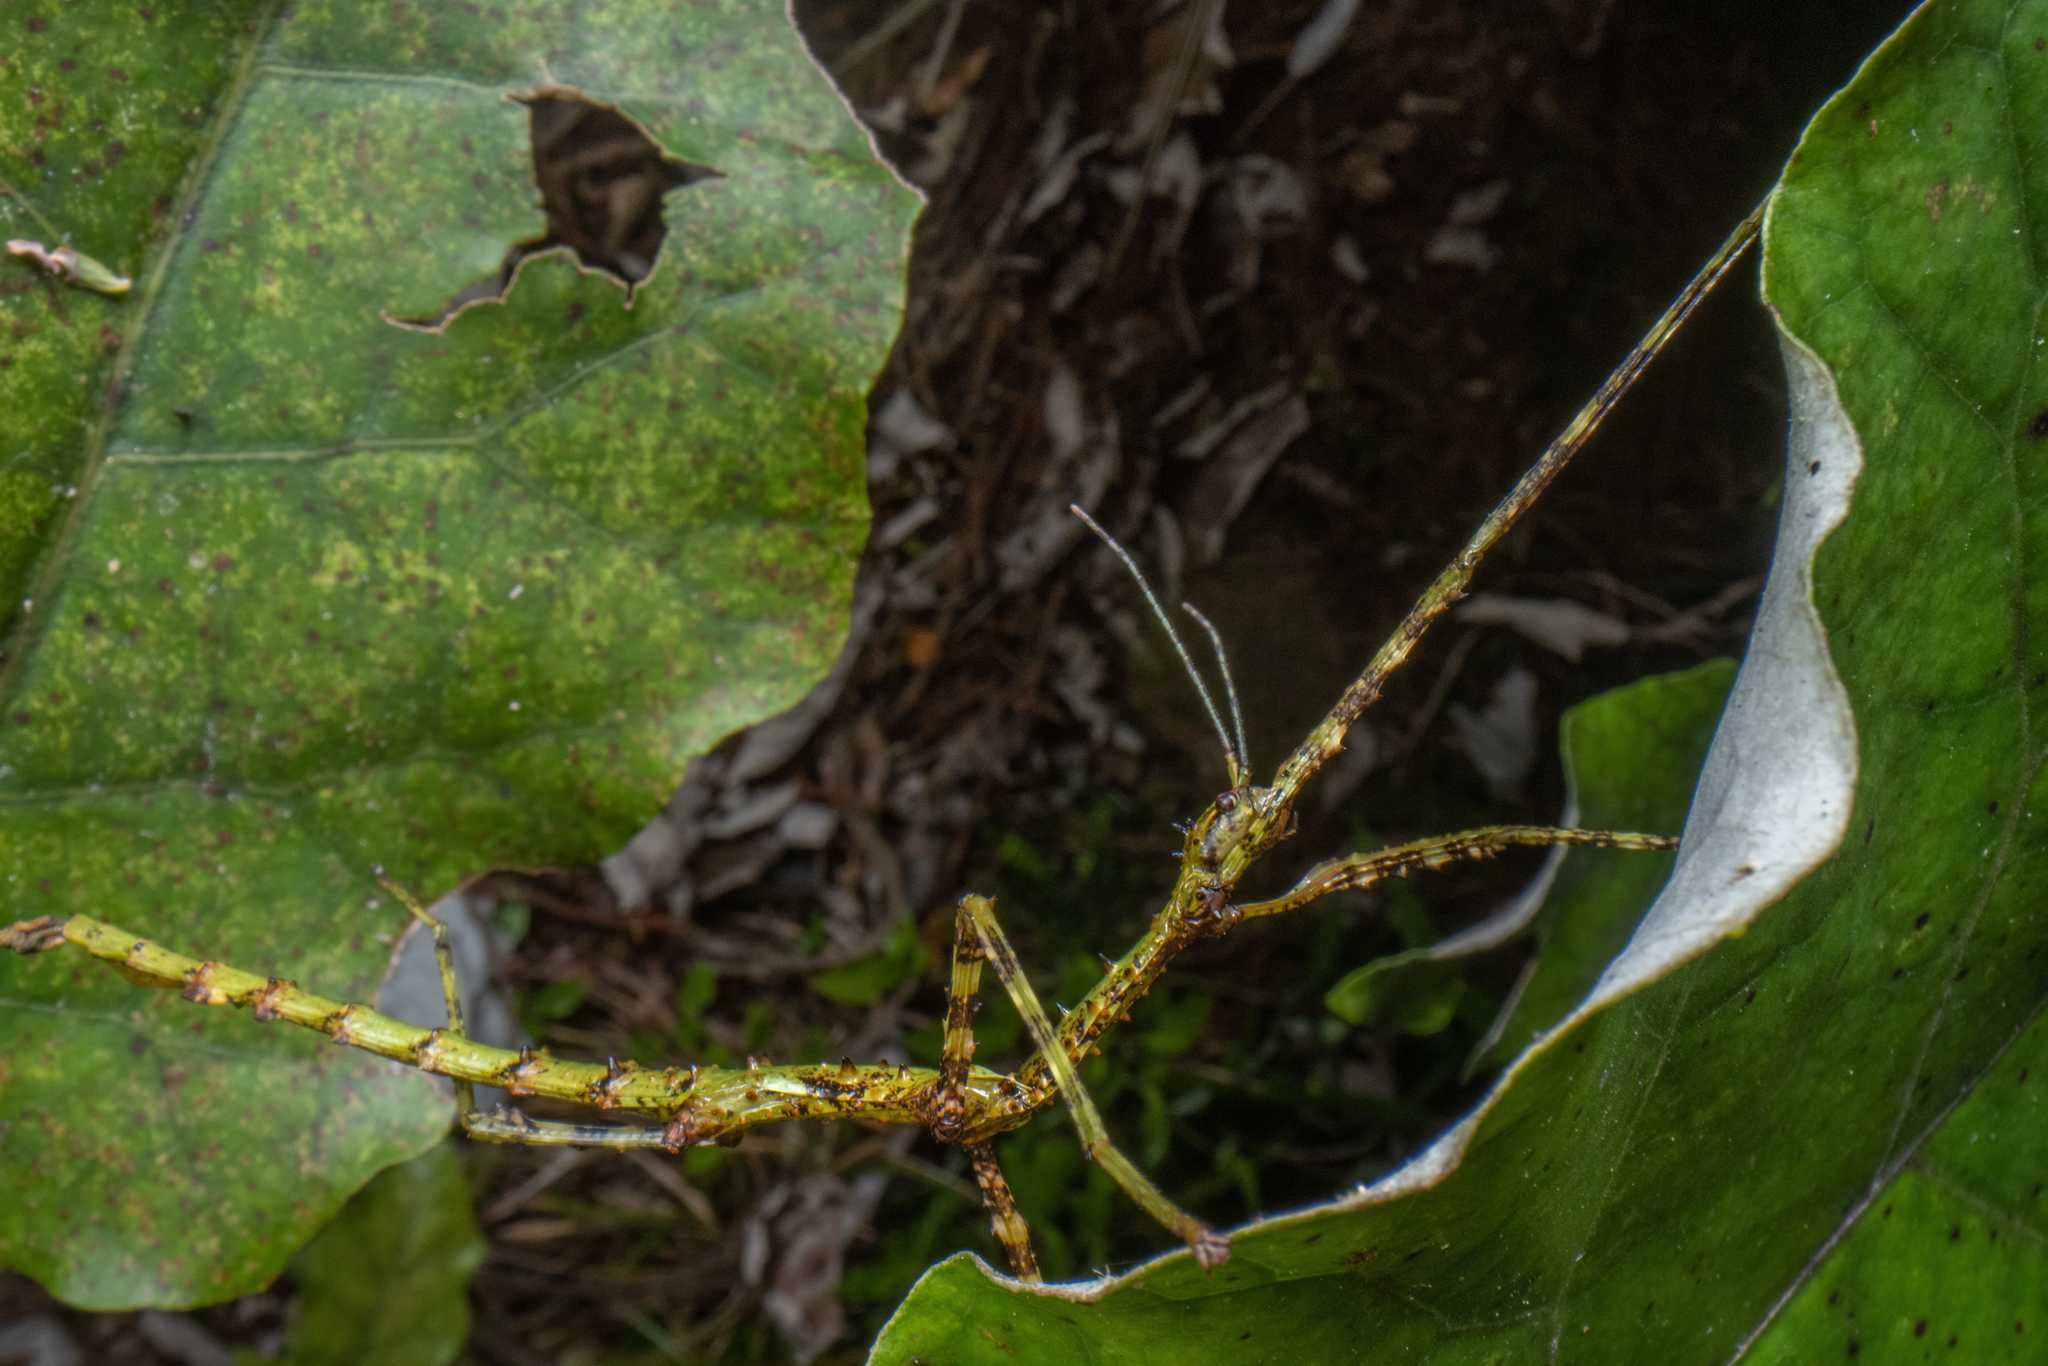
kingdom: Animalia
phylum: Arthropoda
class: Insecta
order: Phasmida
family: Phasmatidae
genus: Acanthoxyla
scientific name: Acanthoxyla prasina
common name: Black-spined stick insect
